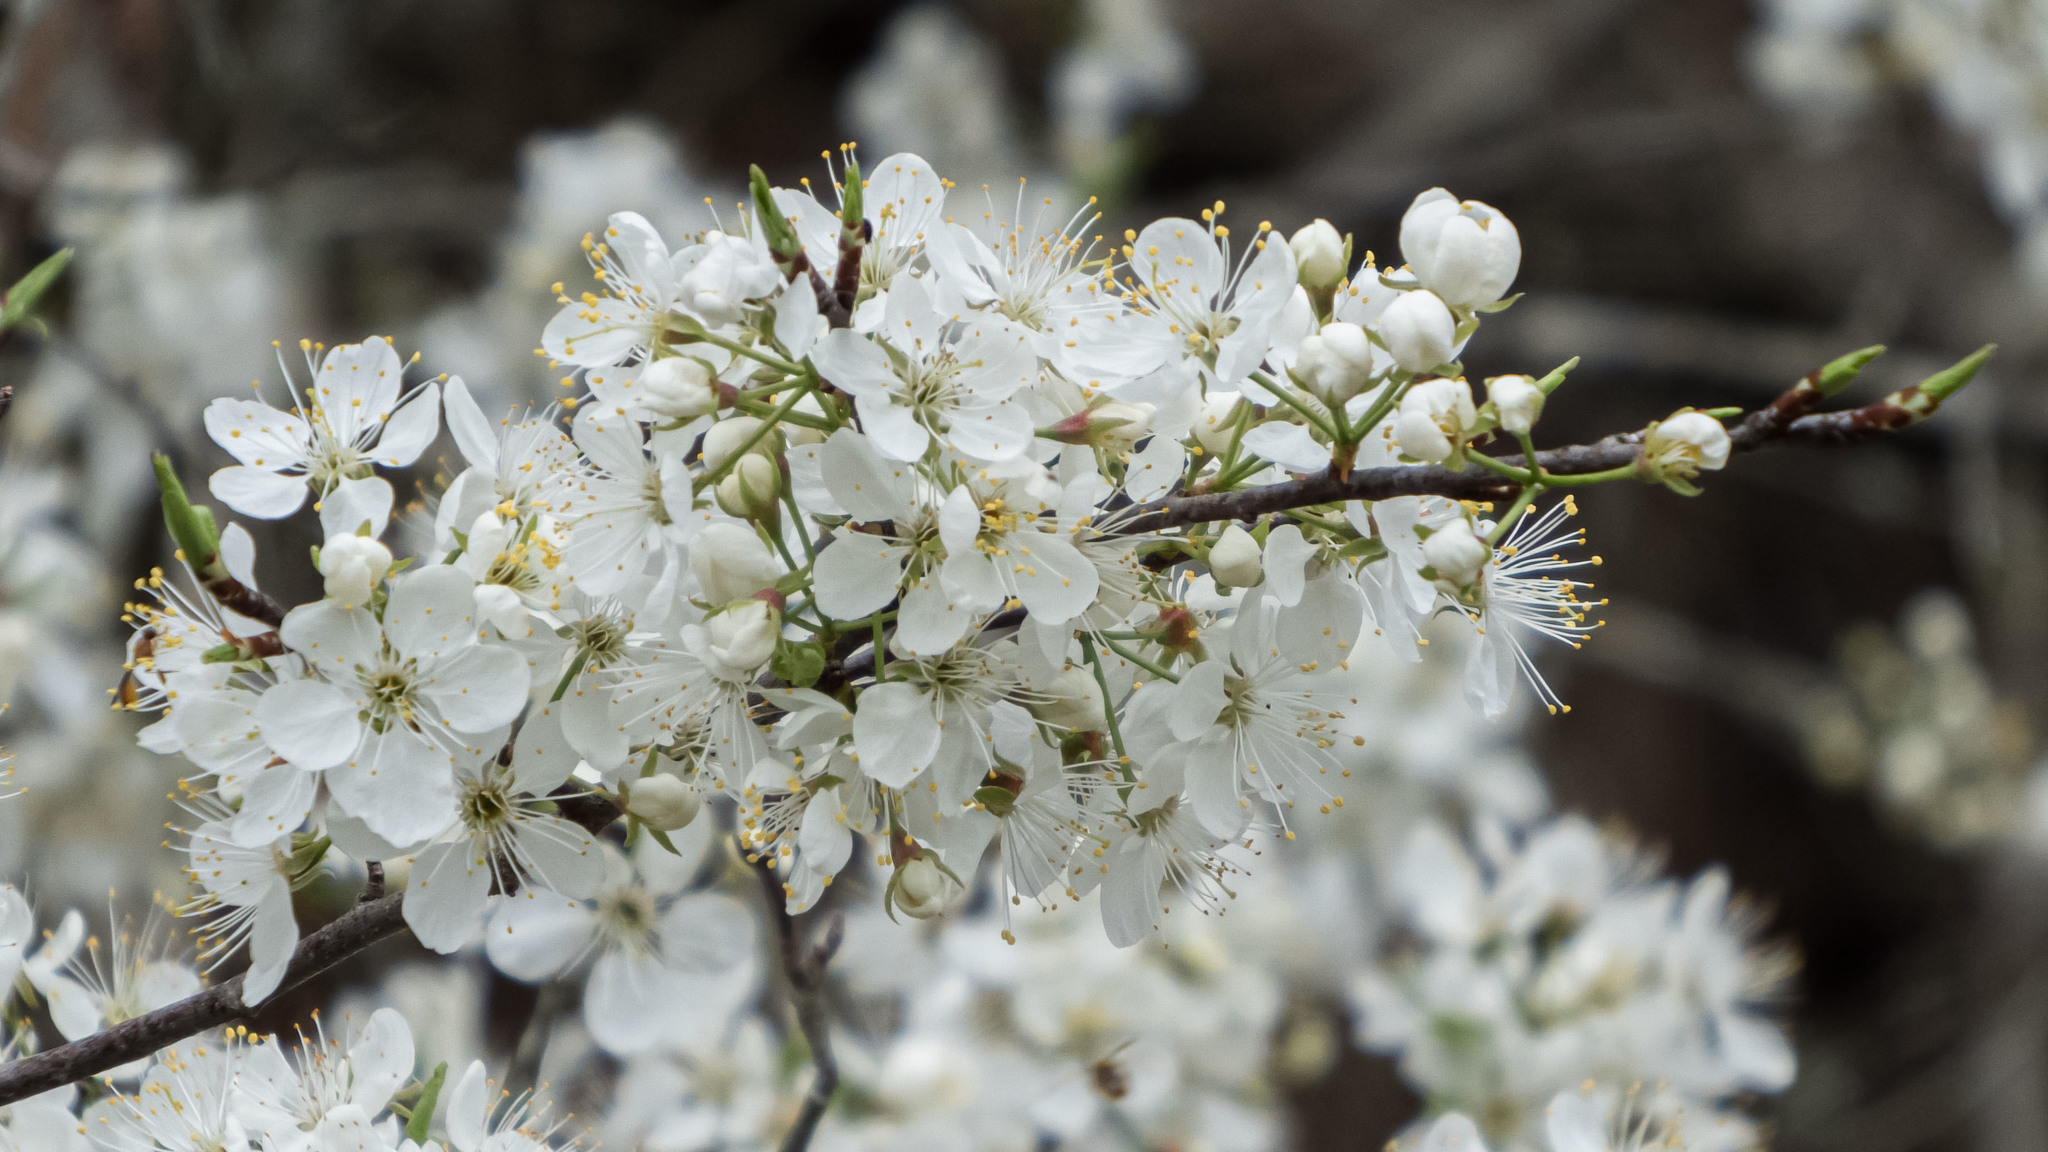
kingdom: Plantae
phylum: Tracheophyta
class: Magnoliopsida
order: Rosales
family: Rosaceae
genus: Prunus
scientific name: Prunus americana
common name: American plum
